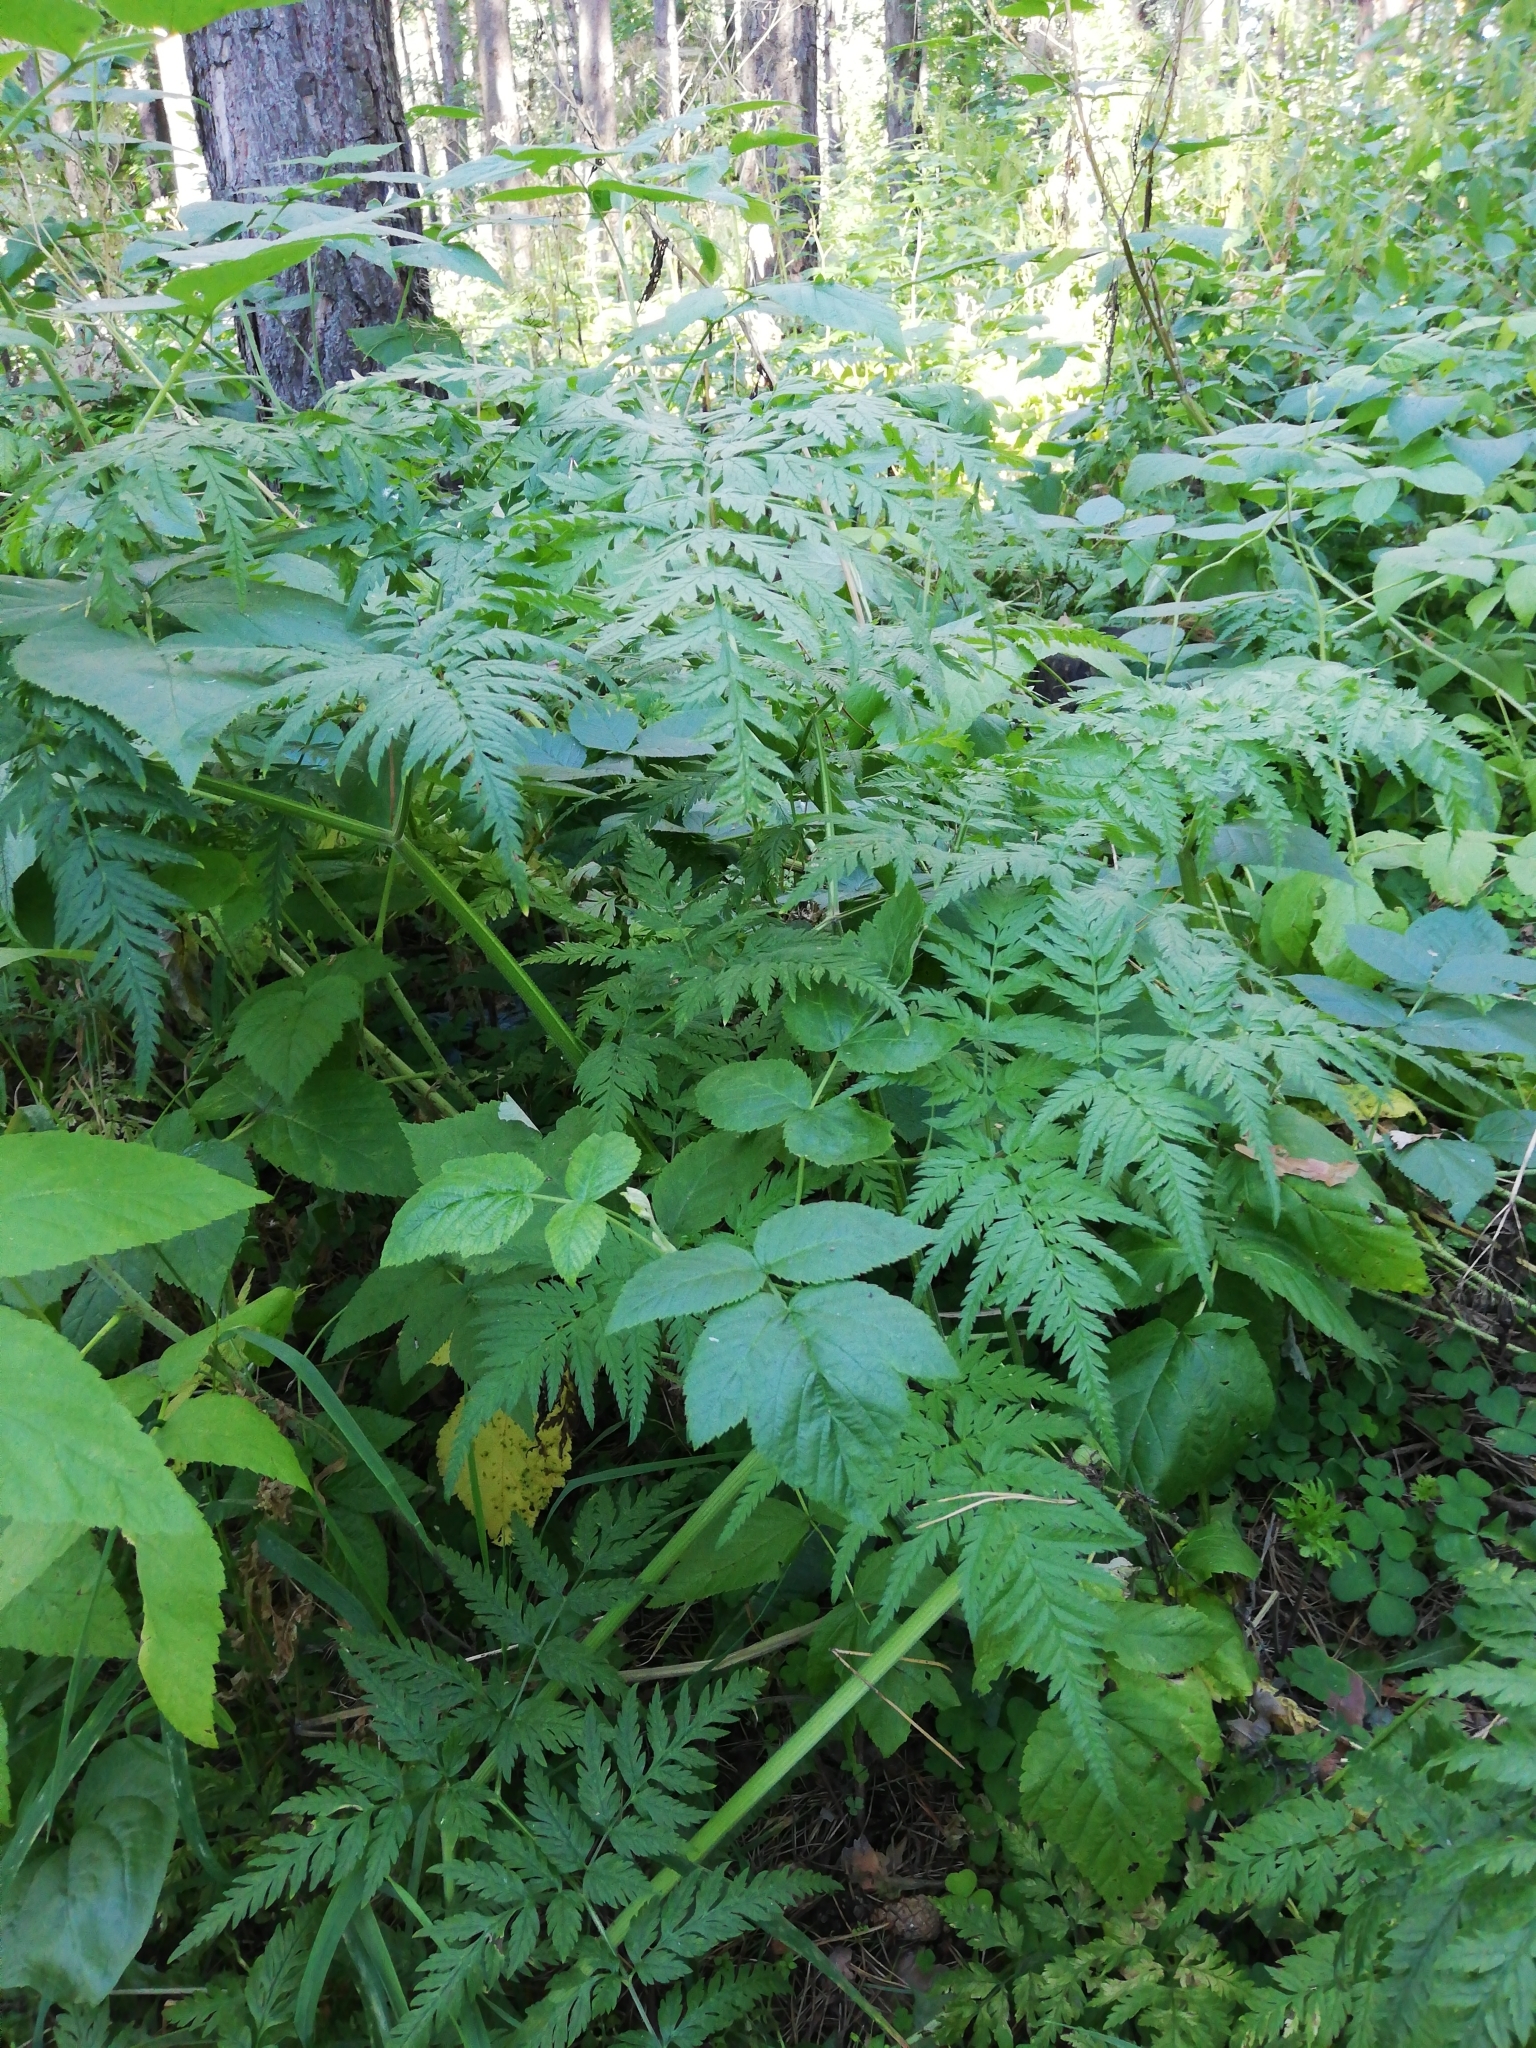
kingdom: Plantae
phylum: Tracheophyta
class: Magnoliopsida
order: Apiales
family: Apiaceae
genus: Anthriscus
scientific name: Anthriscus sylvestris
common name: Cow parsley
